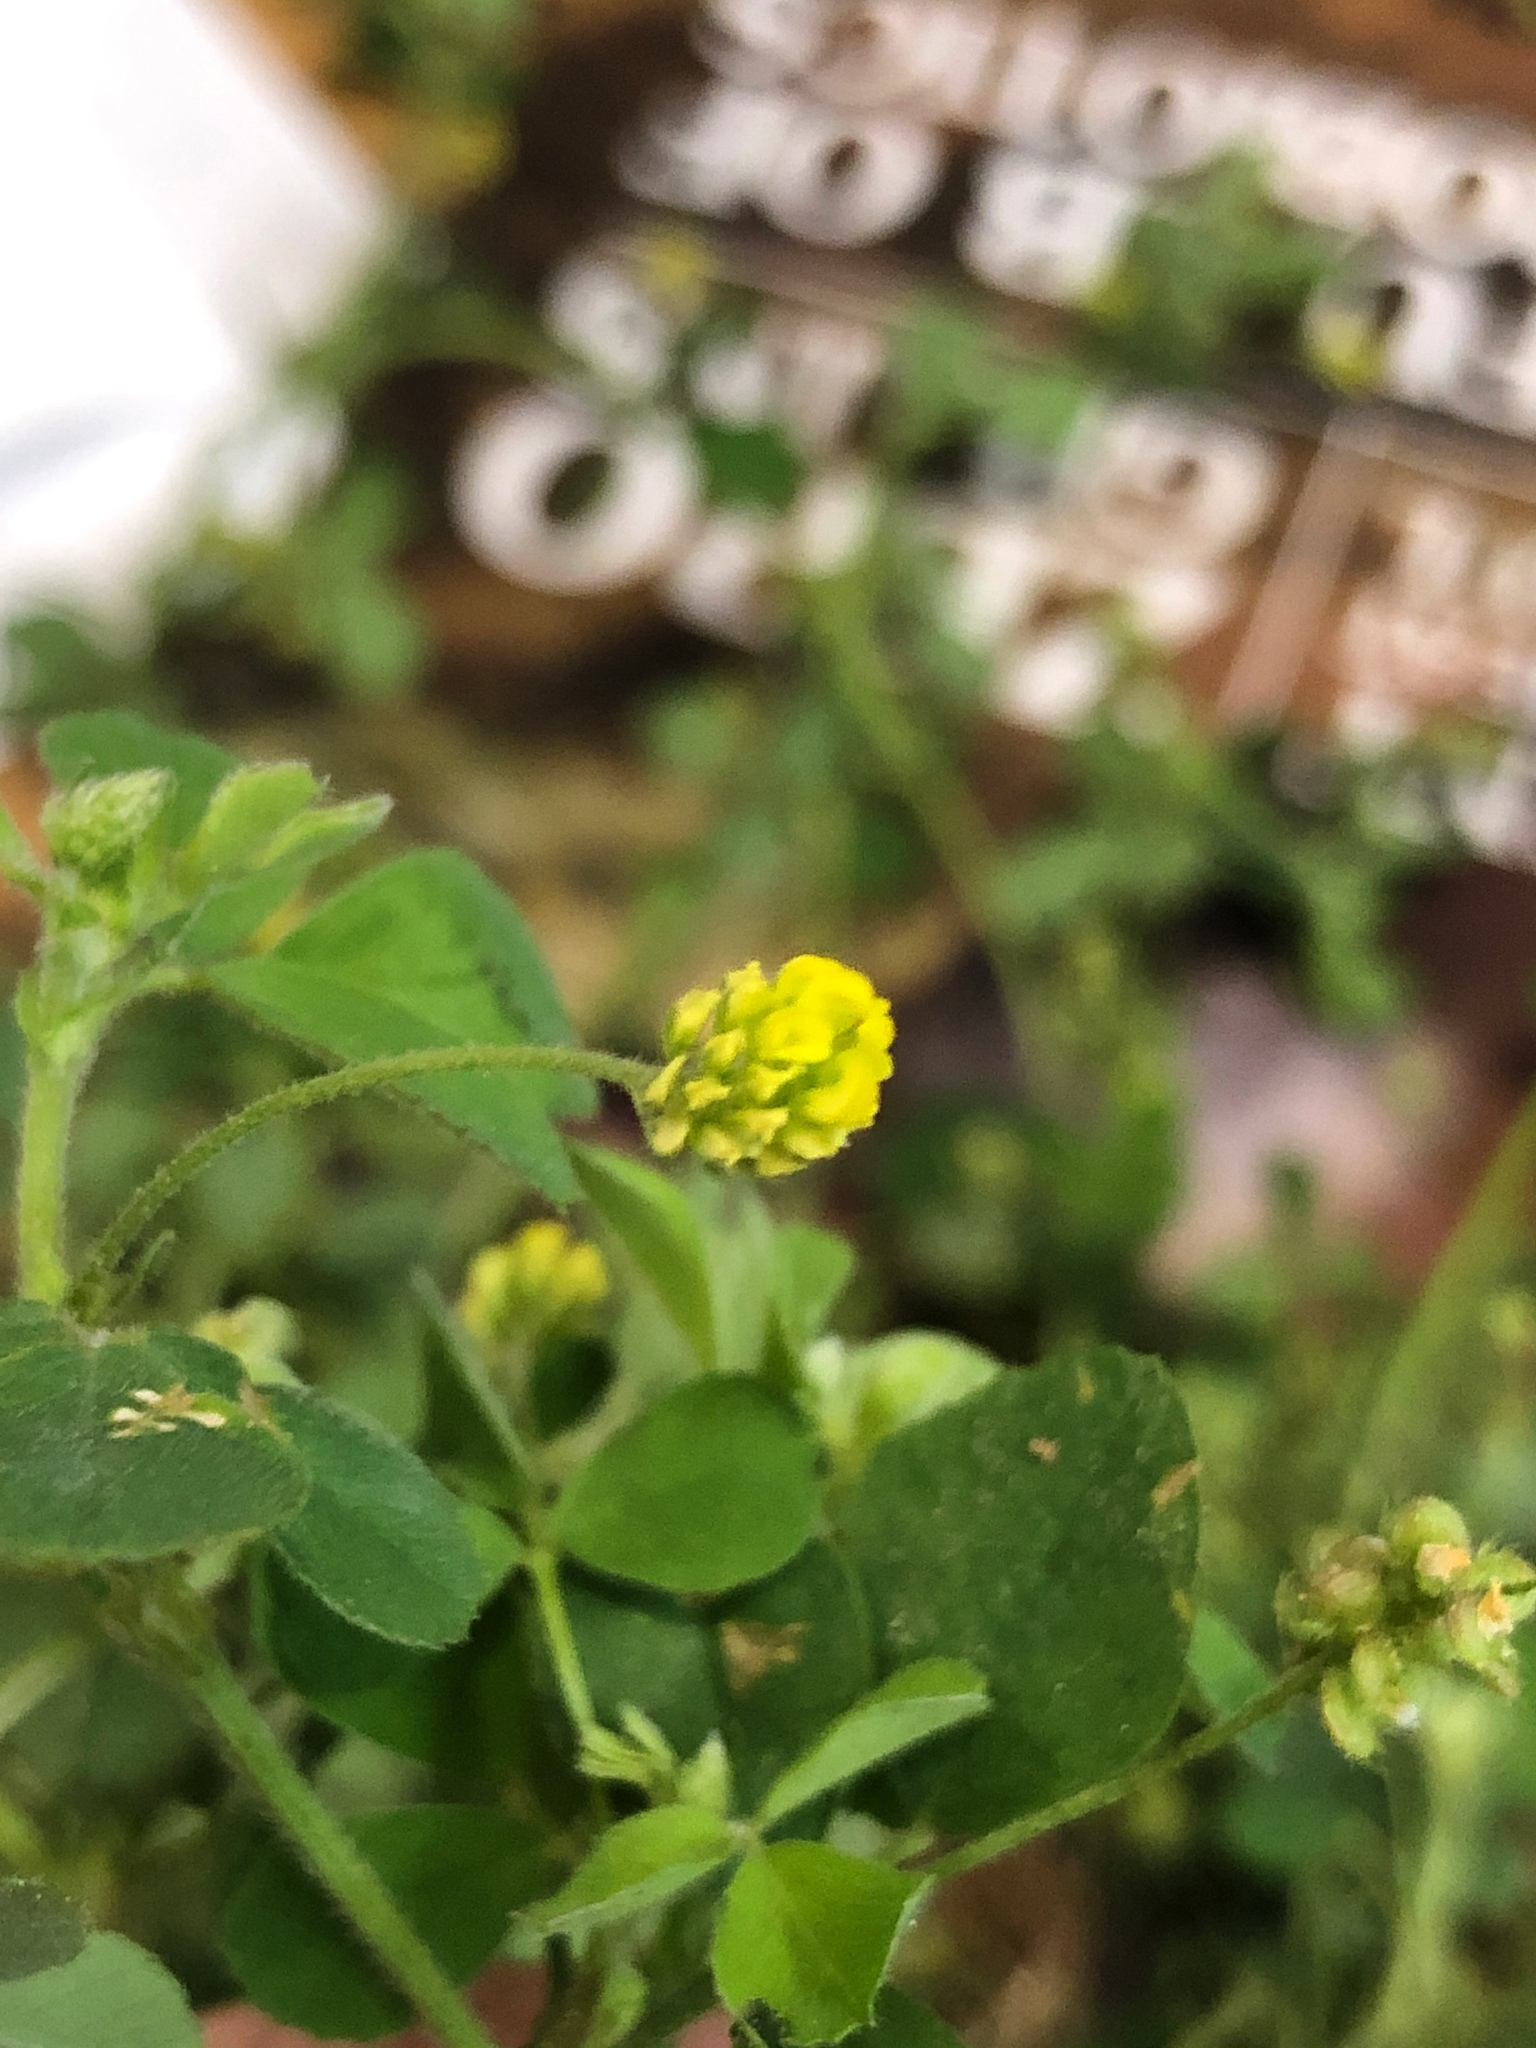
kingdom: Plantae
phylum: Tracheophyta
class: Magnoliopsida
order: Fabales
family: Fabaceae
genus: Medicago
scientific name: Medicago lupulina
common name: Black medick
